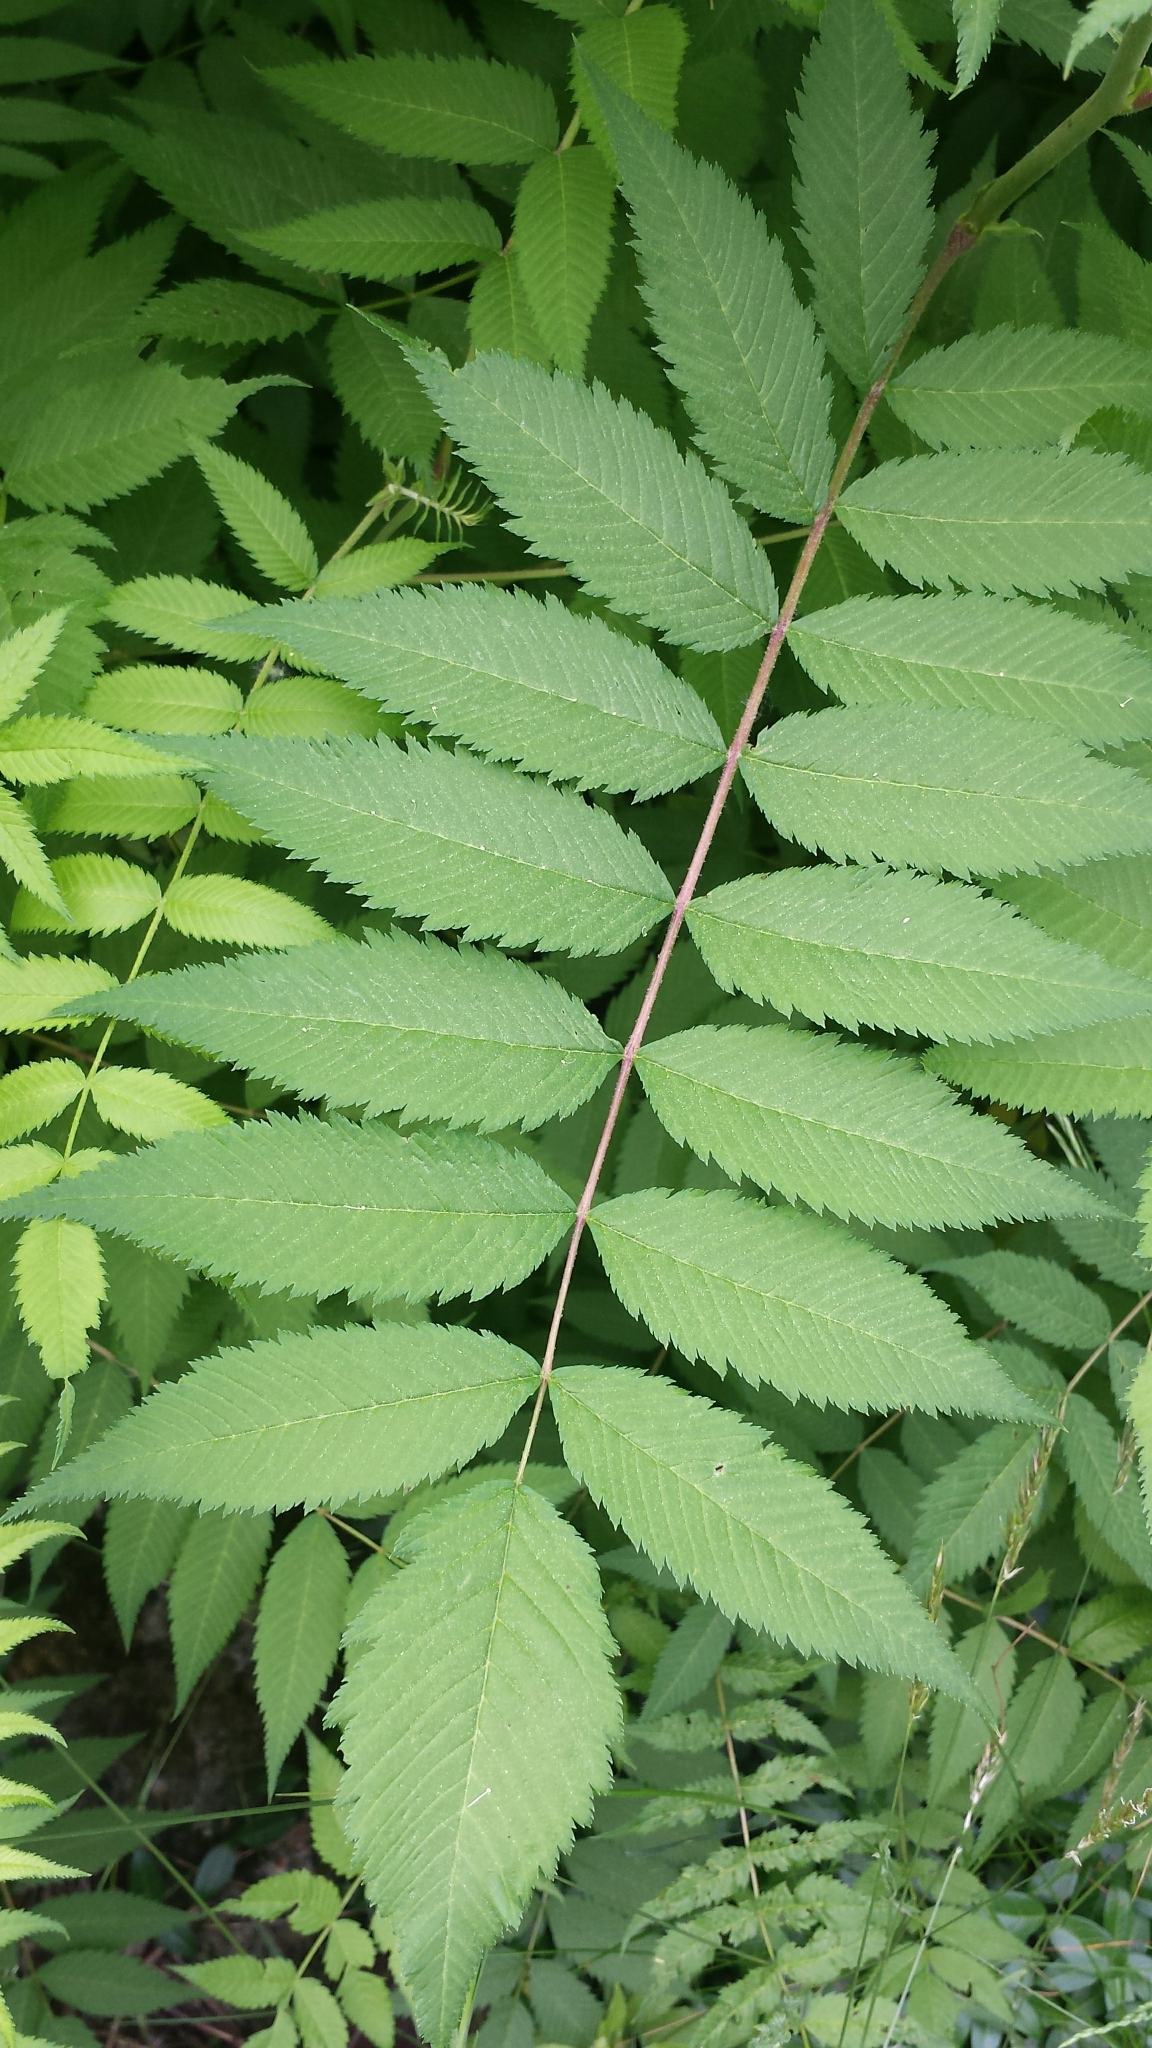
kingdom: Plantae
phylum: Tracheophyta
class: Magnoliopsida
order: Rosales
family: Rosaceae
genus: Sorbaria
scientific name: Sorbaria sorbifolia
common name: False spiraea
